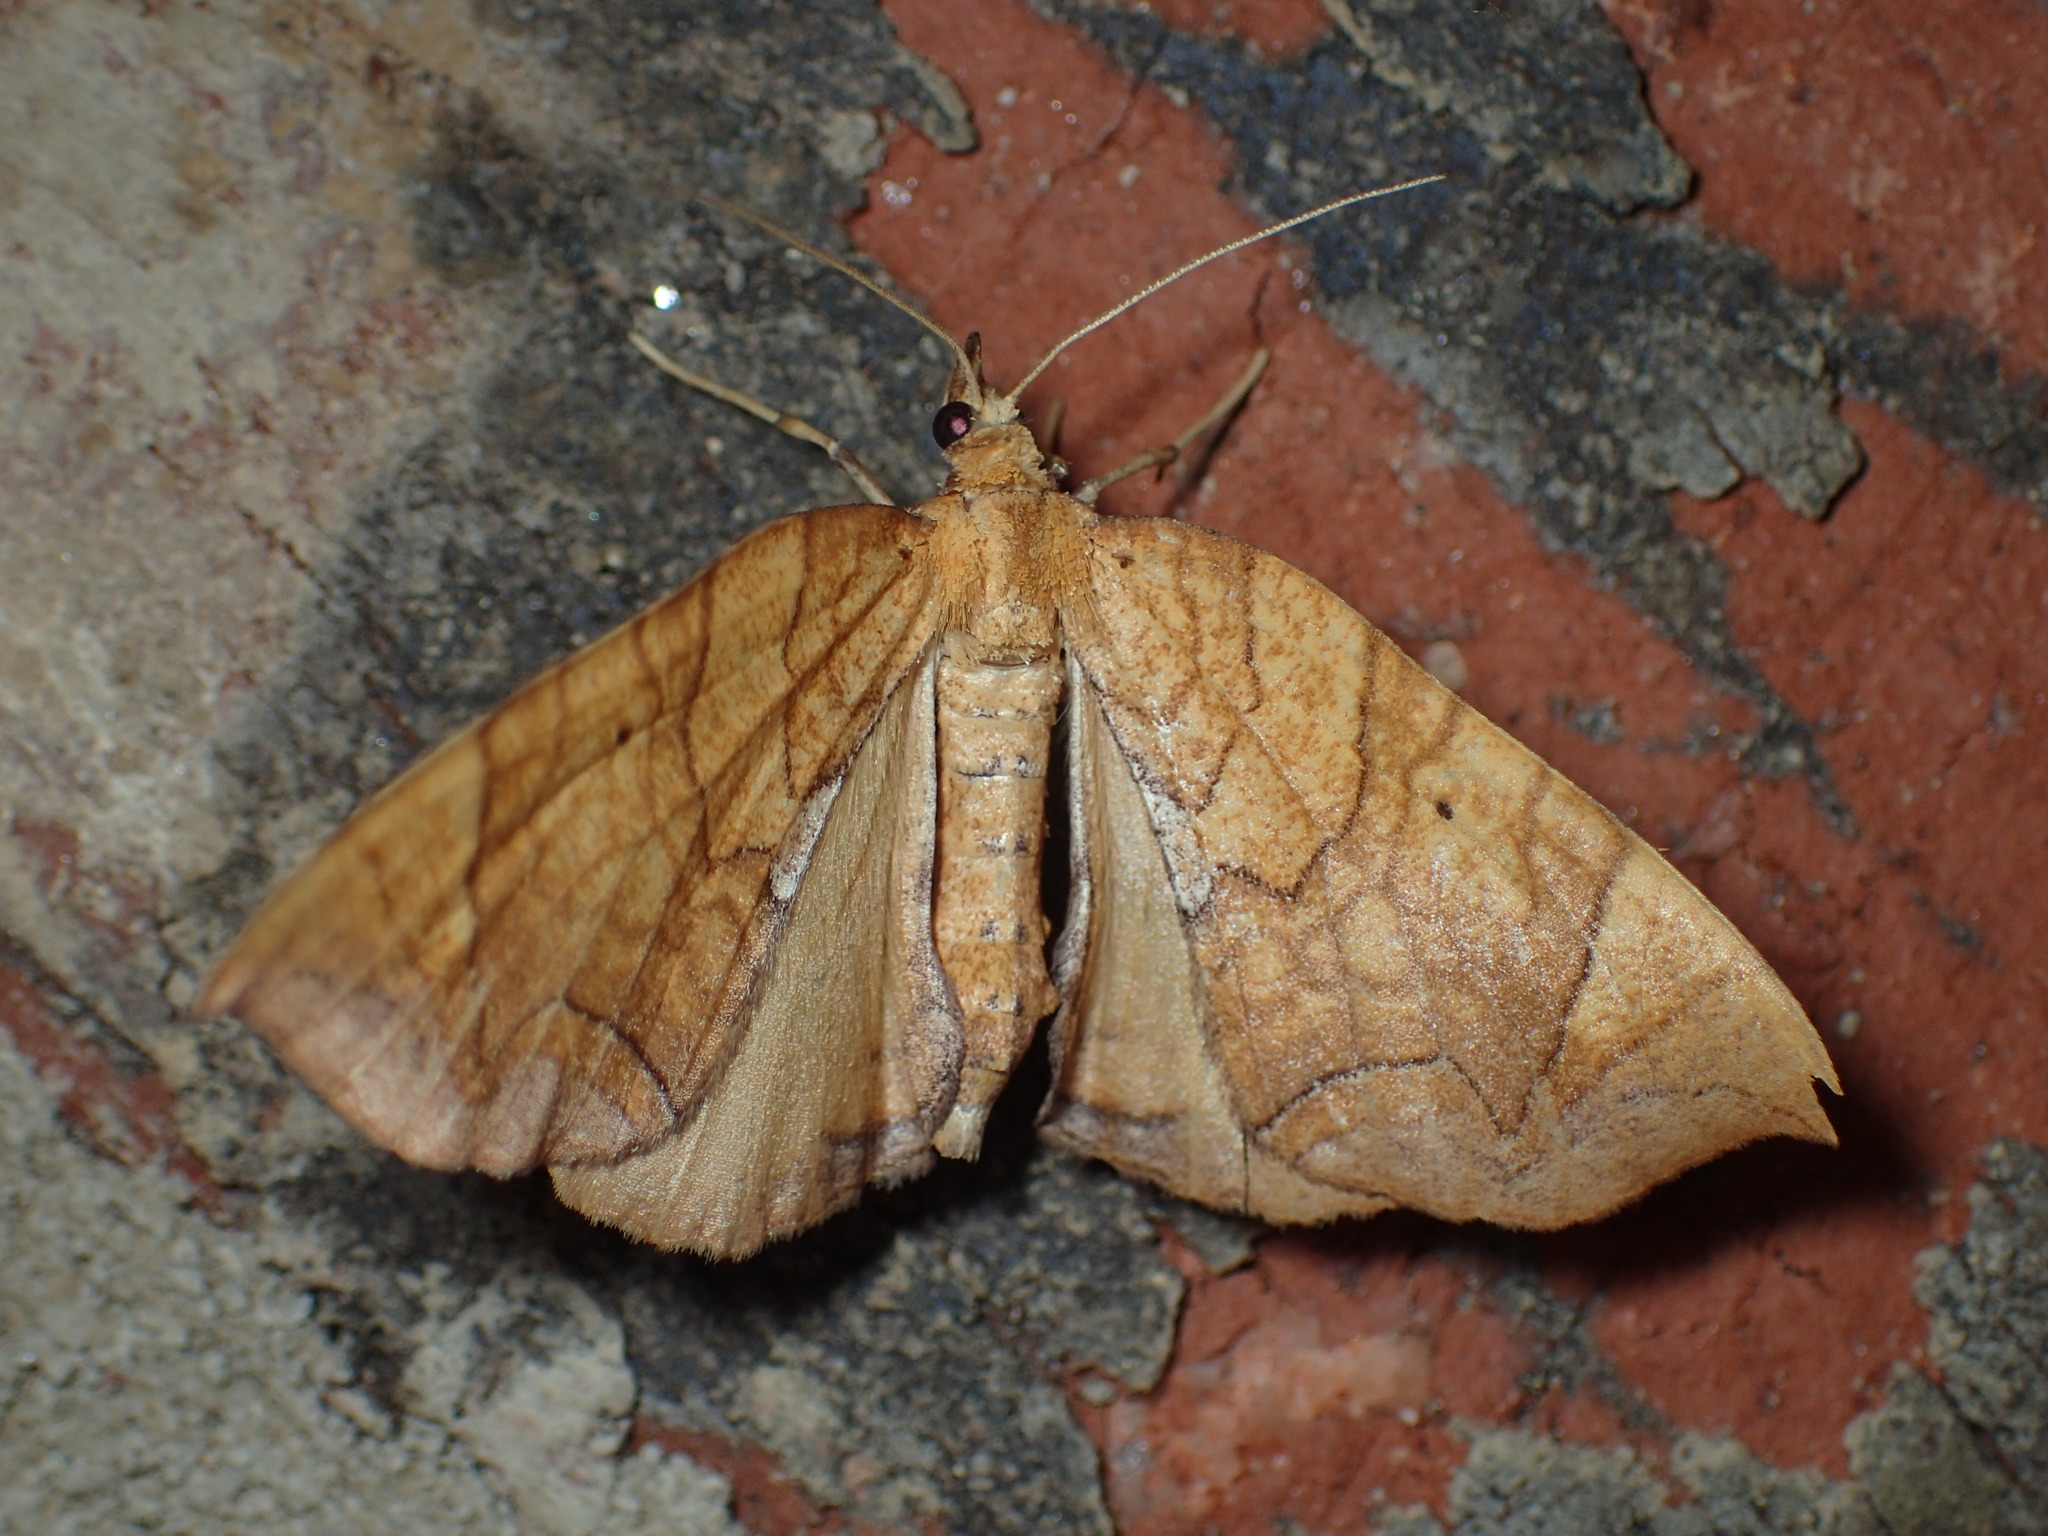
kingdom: Animalia
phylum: Arthropoda
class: Insecta
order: Lepidoptera
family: Geometridae
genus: Eulithis
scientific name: Eulithis
